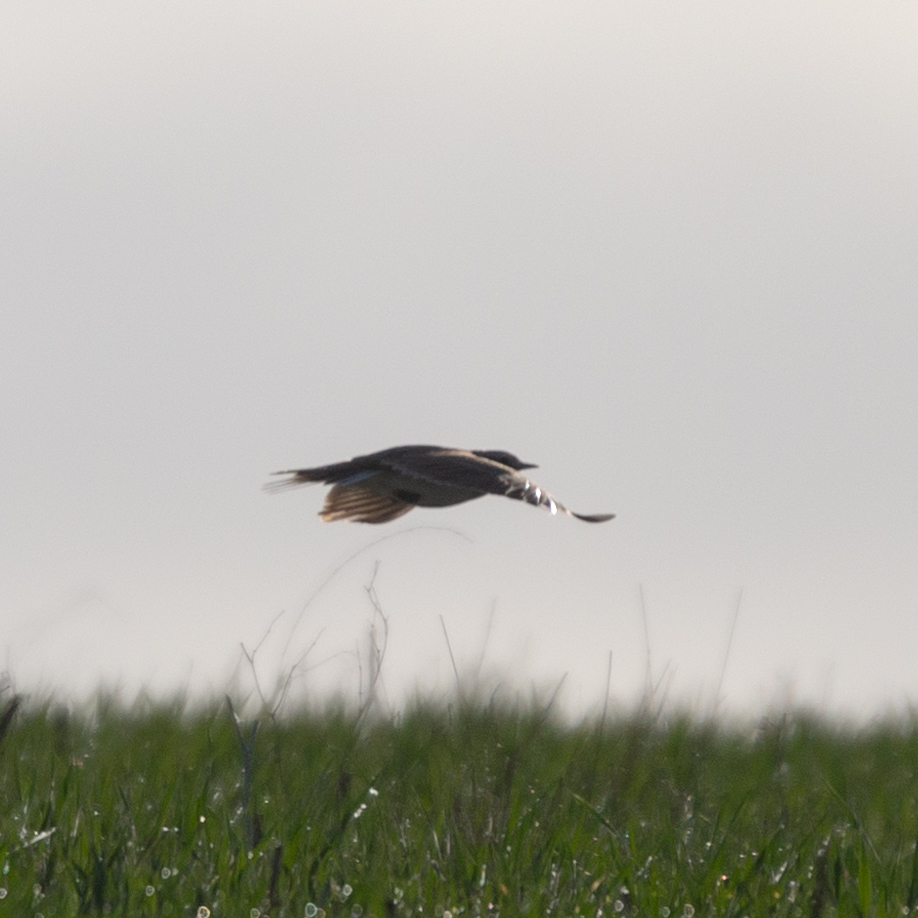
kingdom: Animalia
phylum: Chordata
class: Aves
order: Passeriformes
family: Alaudidae
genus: Alauda
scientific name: Alauda arvensis
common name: Eurasian skylark
